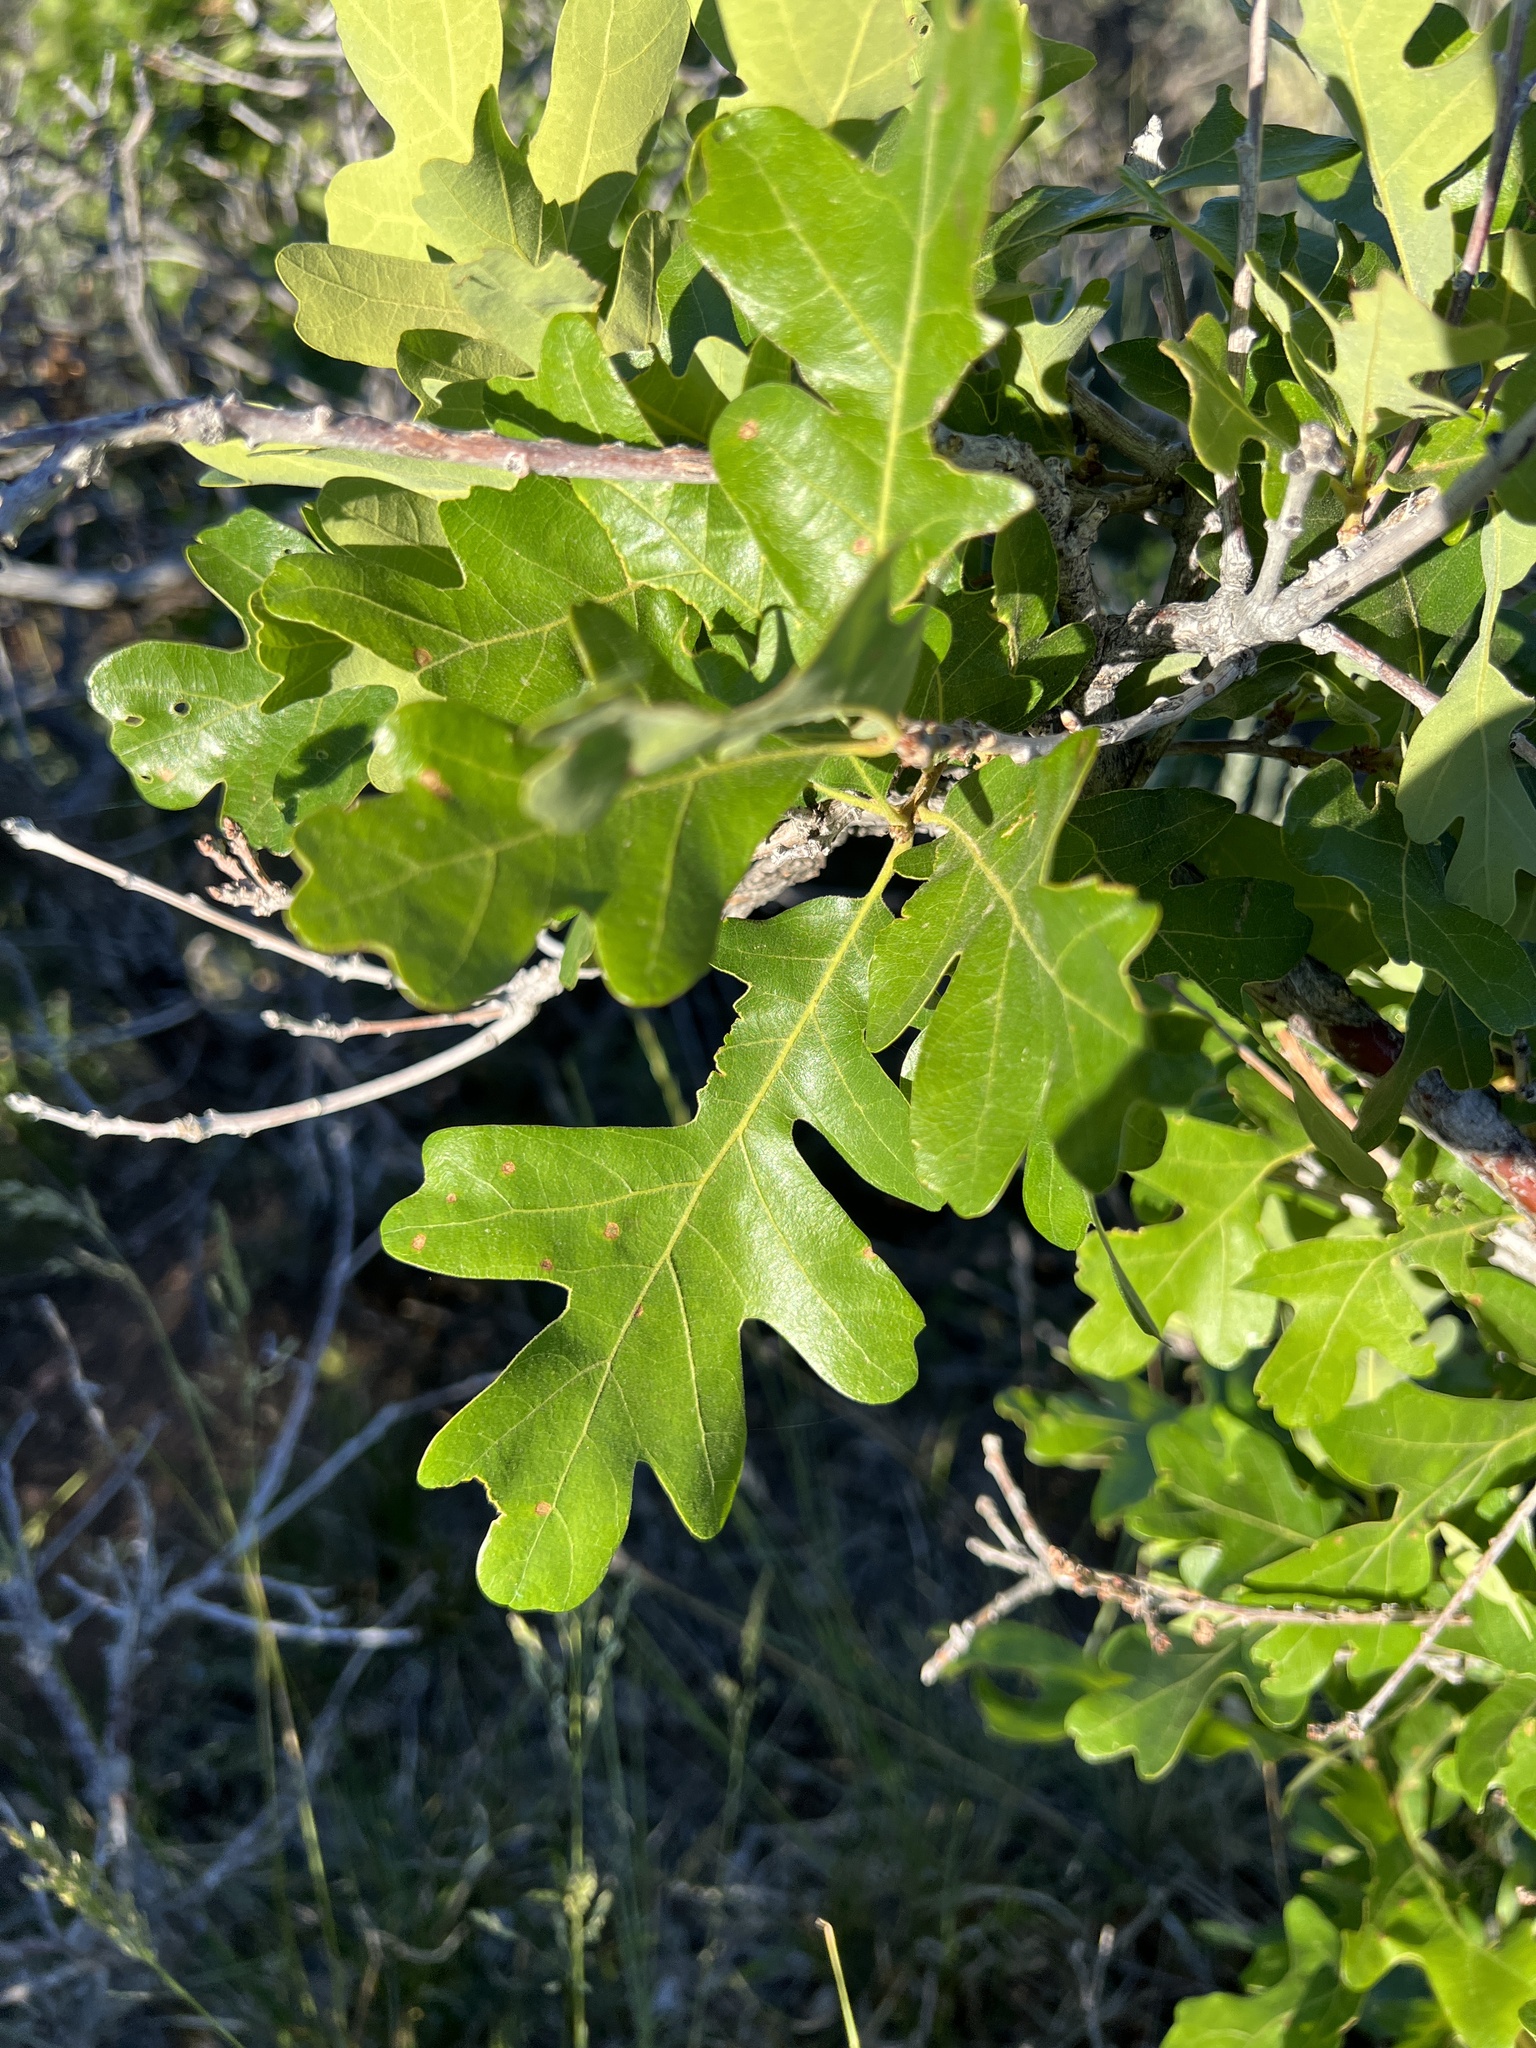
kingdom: Plantae
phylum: Tracheophyta
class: Magnoliopsida
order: Fagales
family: Fagaceae
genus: Quercus
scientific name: Quercus gambelii
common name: Gambel oak
